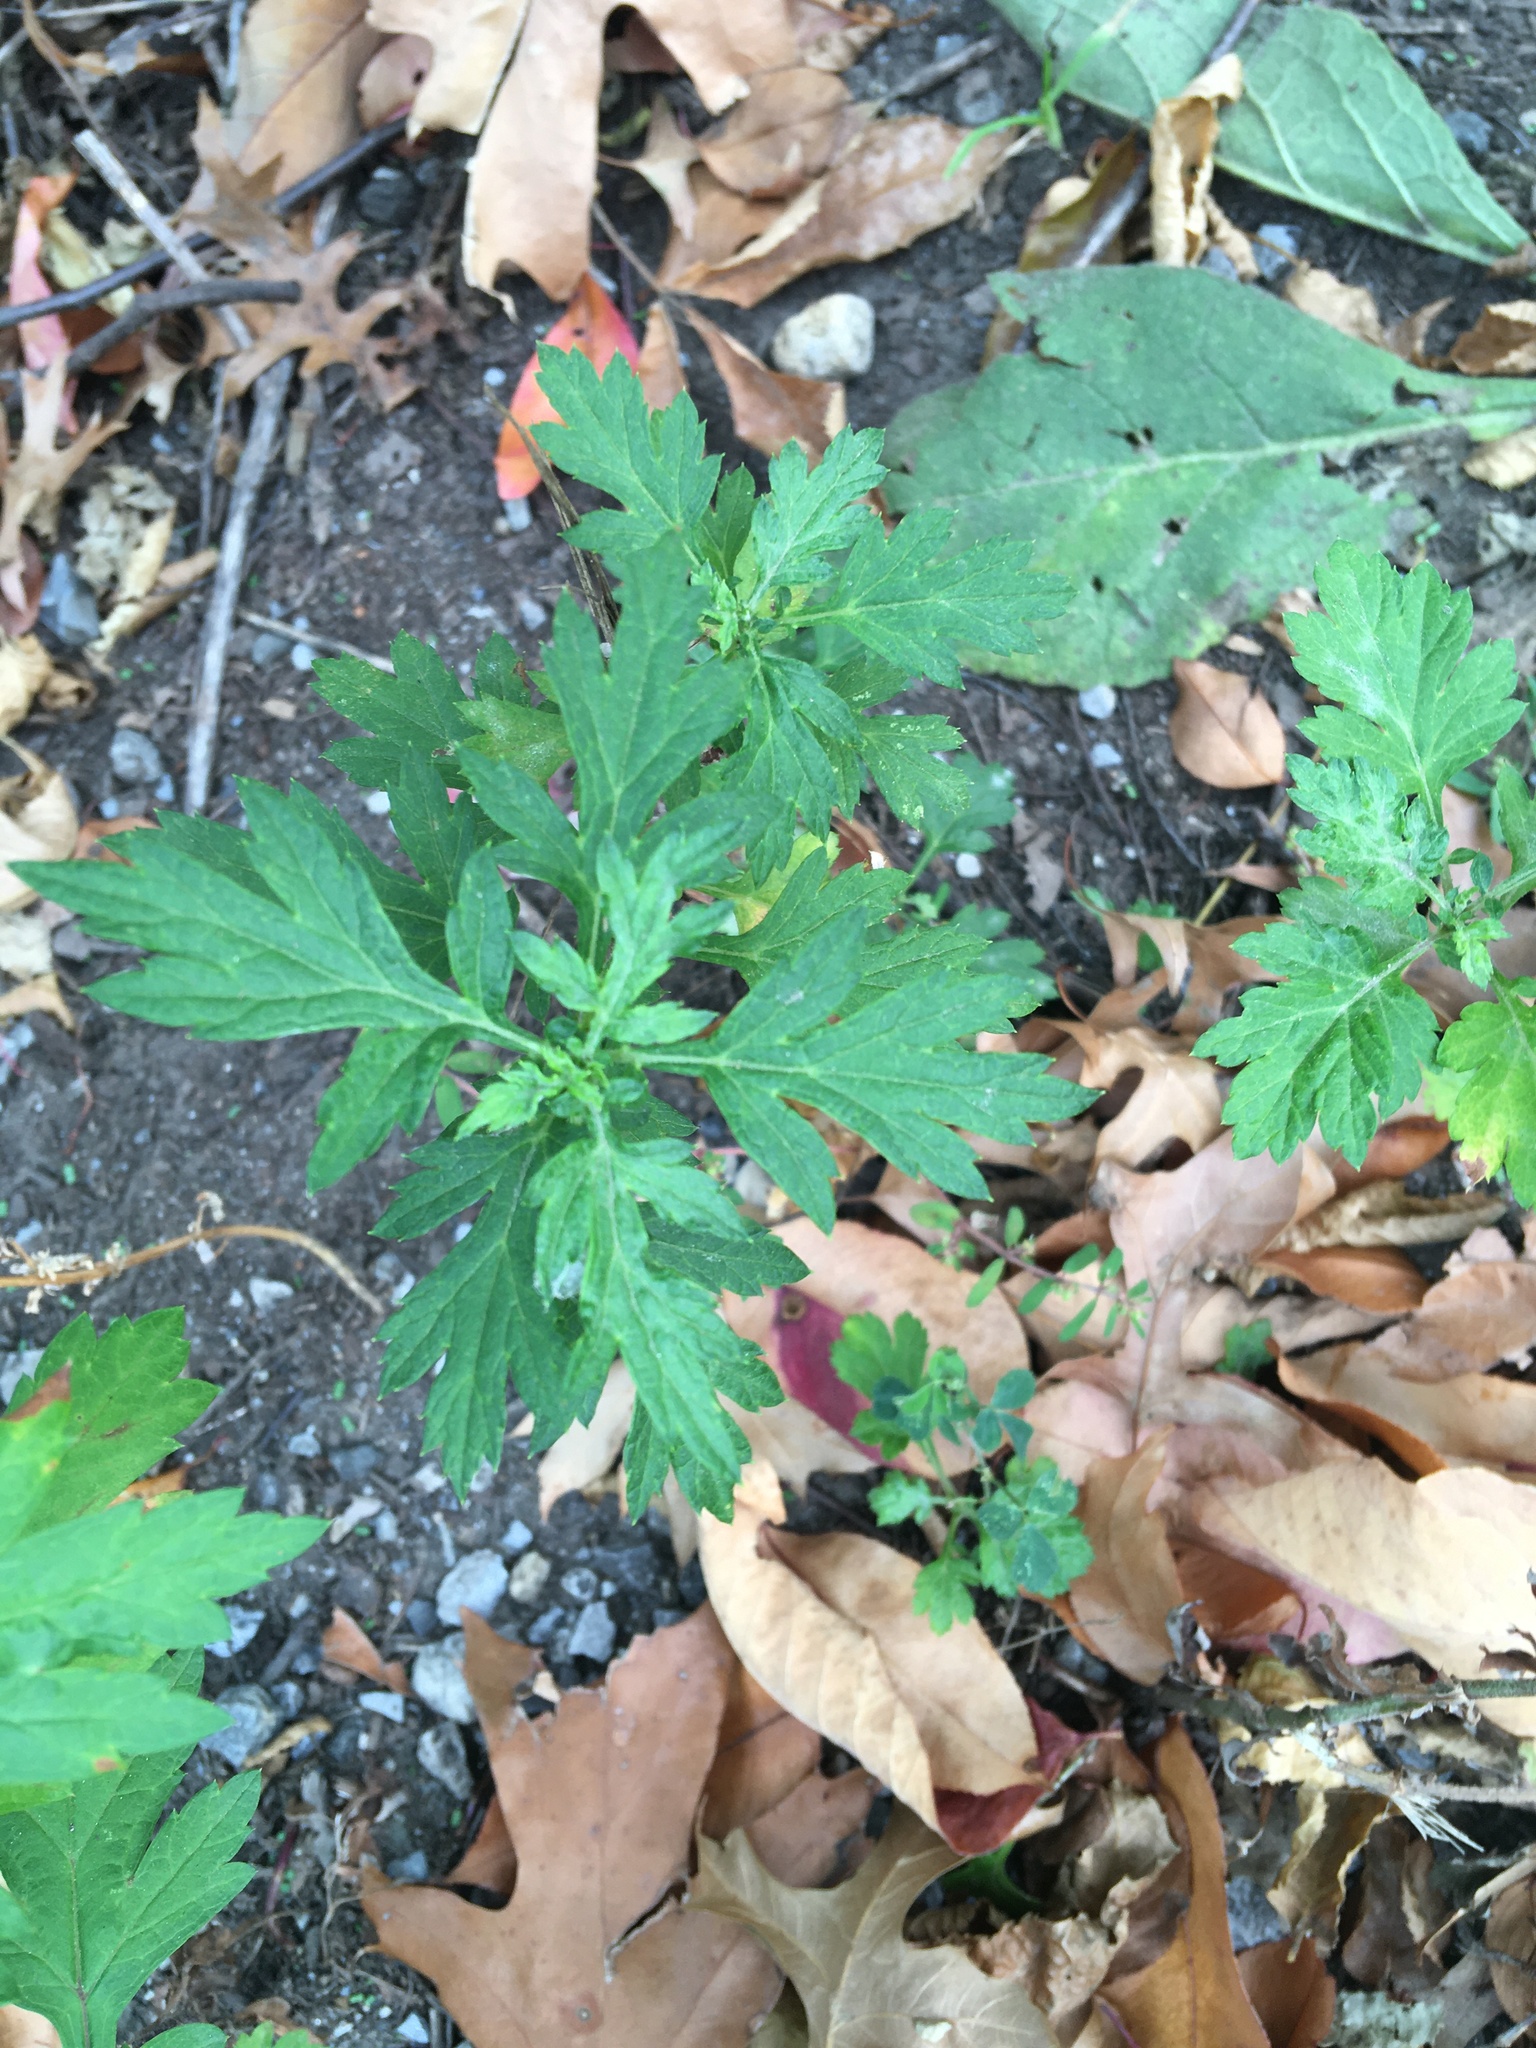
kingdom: Plantae
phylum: Tracheophyta
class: Magnoliopsida
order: Asterales
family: Asteraceae
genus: Artemisia
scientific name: Artemisia vulgaris
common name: Mugwort
